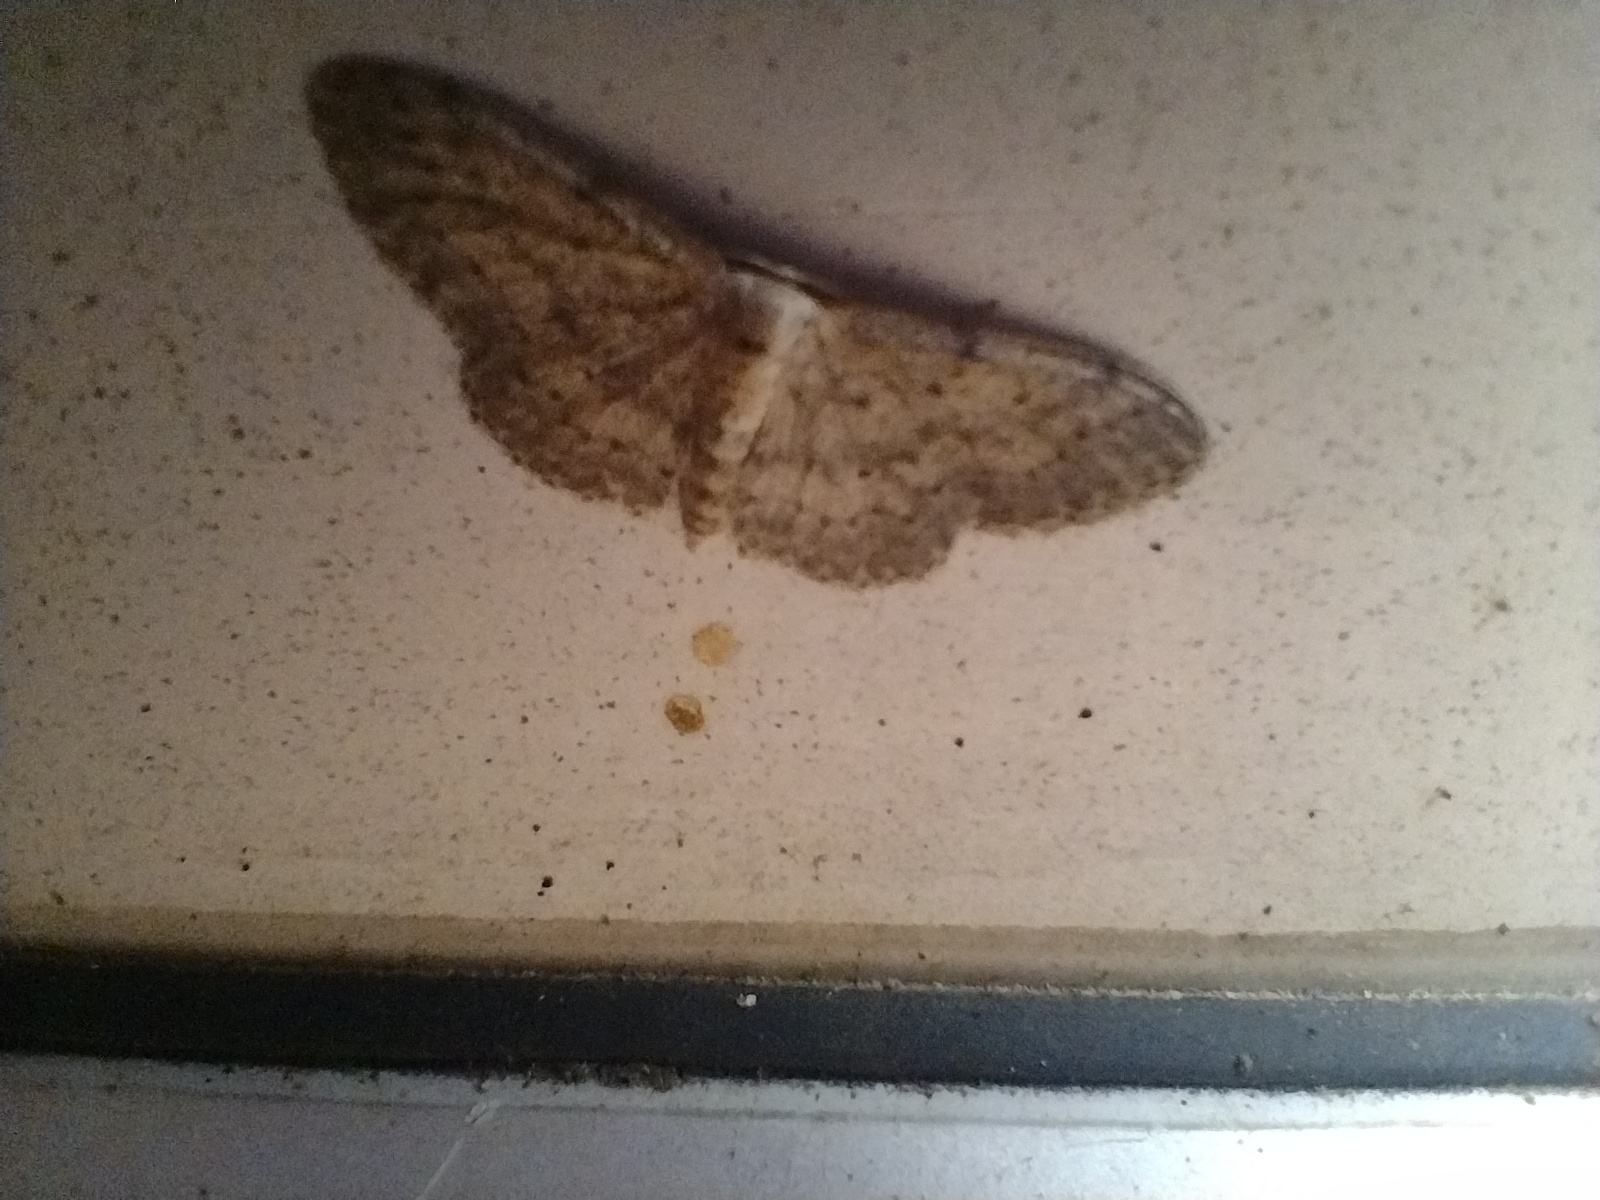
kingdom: Animalia
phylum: Arthropoda
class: Insecta
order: Lepidoptera
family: Geometridae
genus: Idaea
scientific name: Idaea seriata
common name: Small dusty wave
